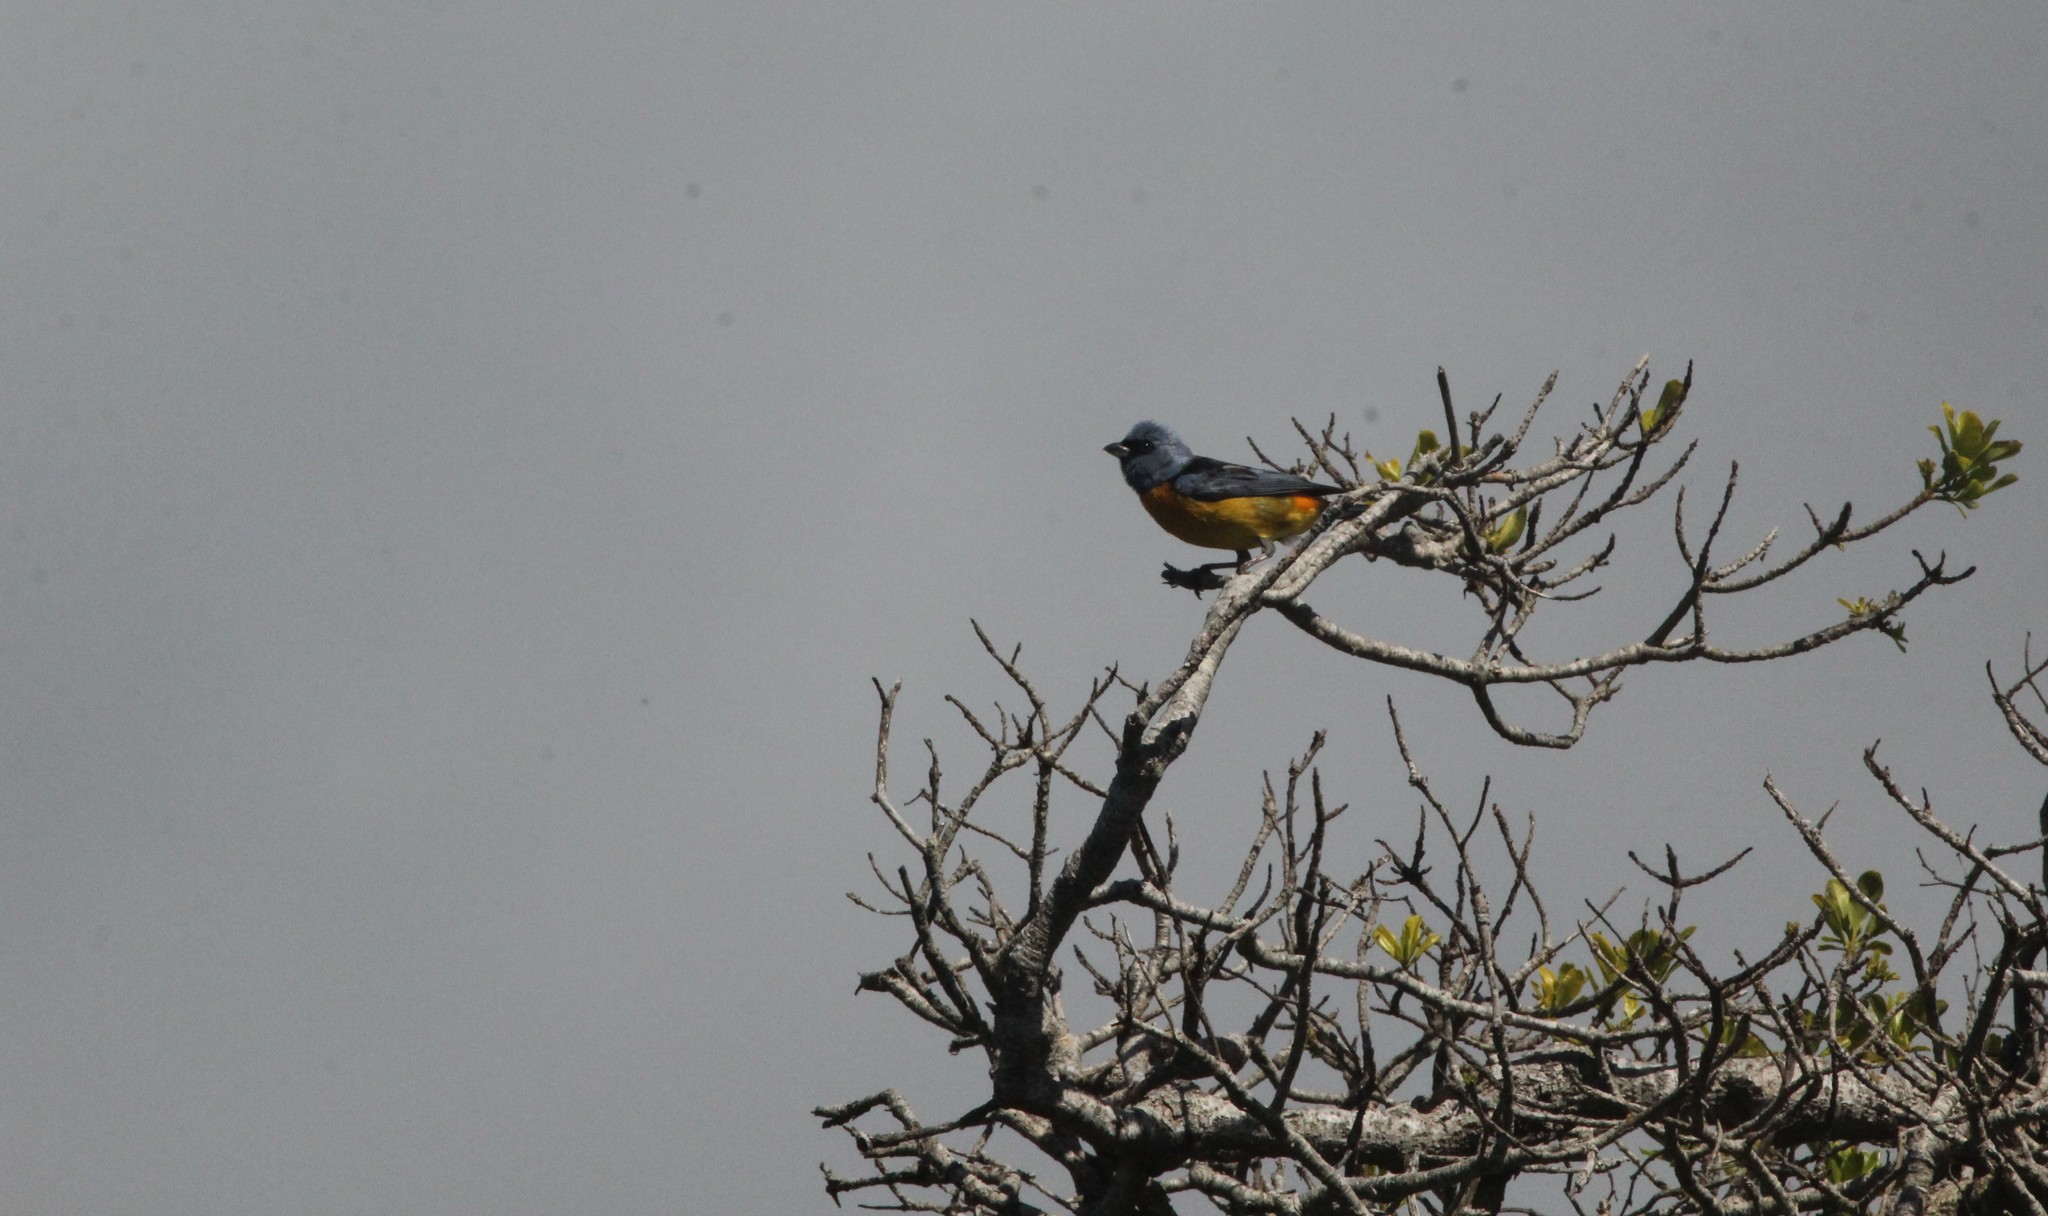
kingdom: Animalia
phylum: Chordata
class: Aves
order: Passeriformes
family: Thraupidae
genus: Rauenia
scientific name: Rauenia bonariensis
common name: Blue-and-yellow tanager
